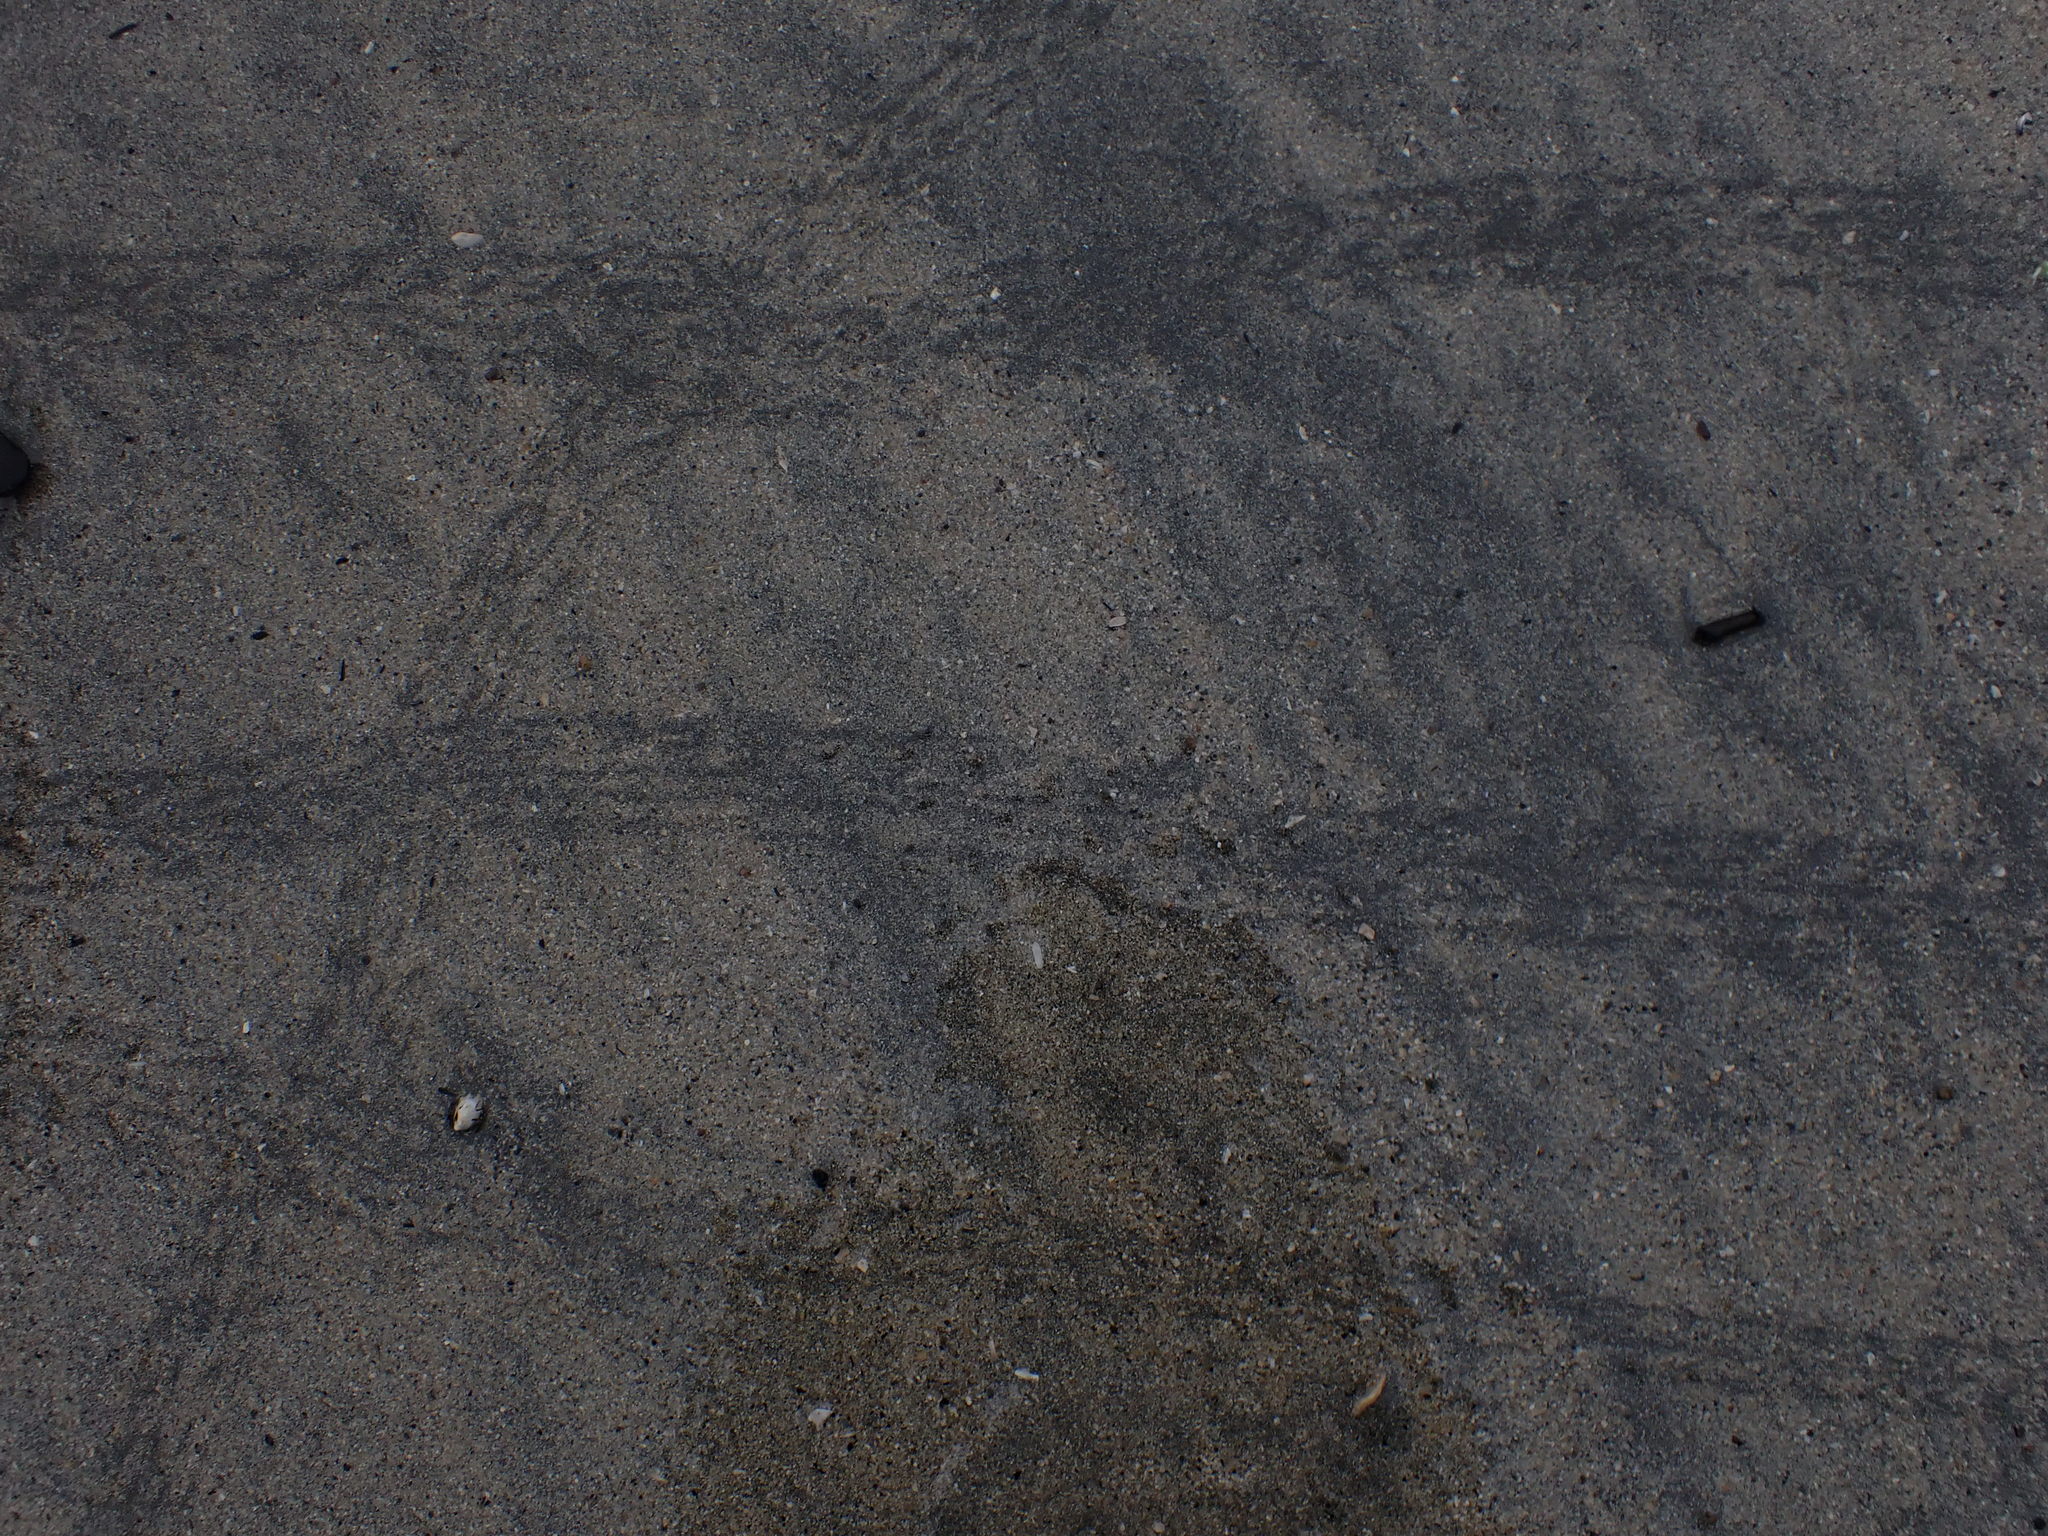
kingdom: Animalia
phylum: Arthropoda
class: Malacostraca
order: Decapoda
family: Varunidae
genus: Hemigrapsus
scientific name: Hemigrapsus nudus
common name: Purple shore crab
